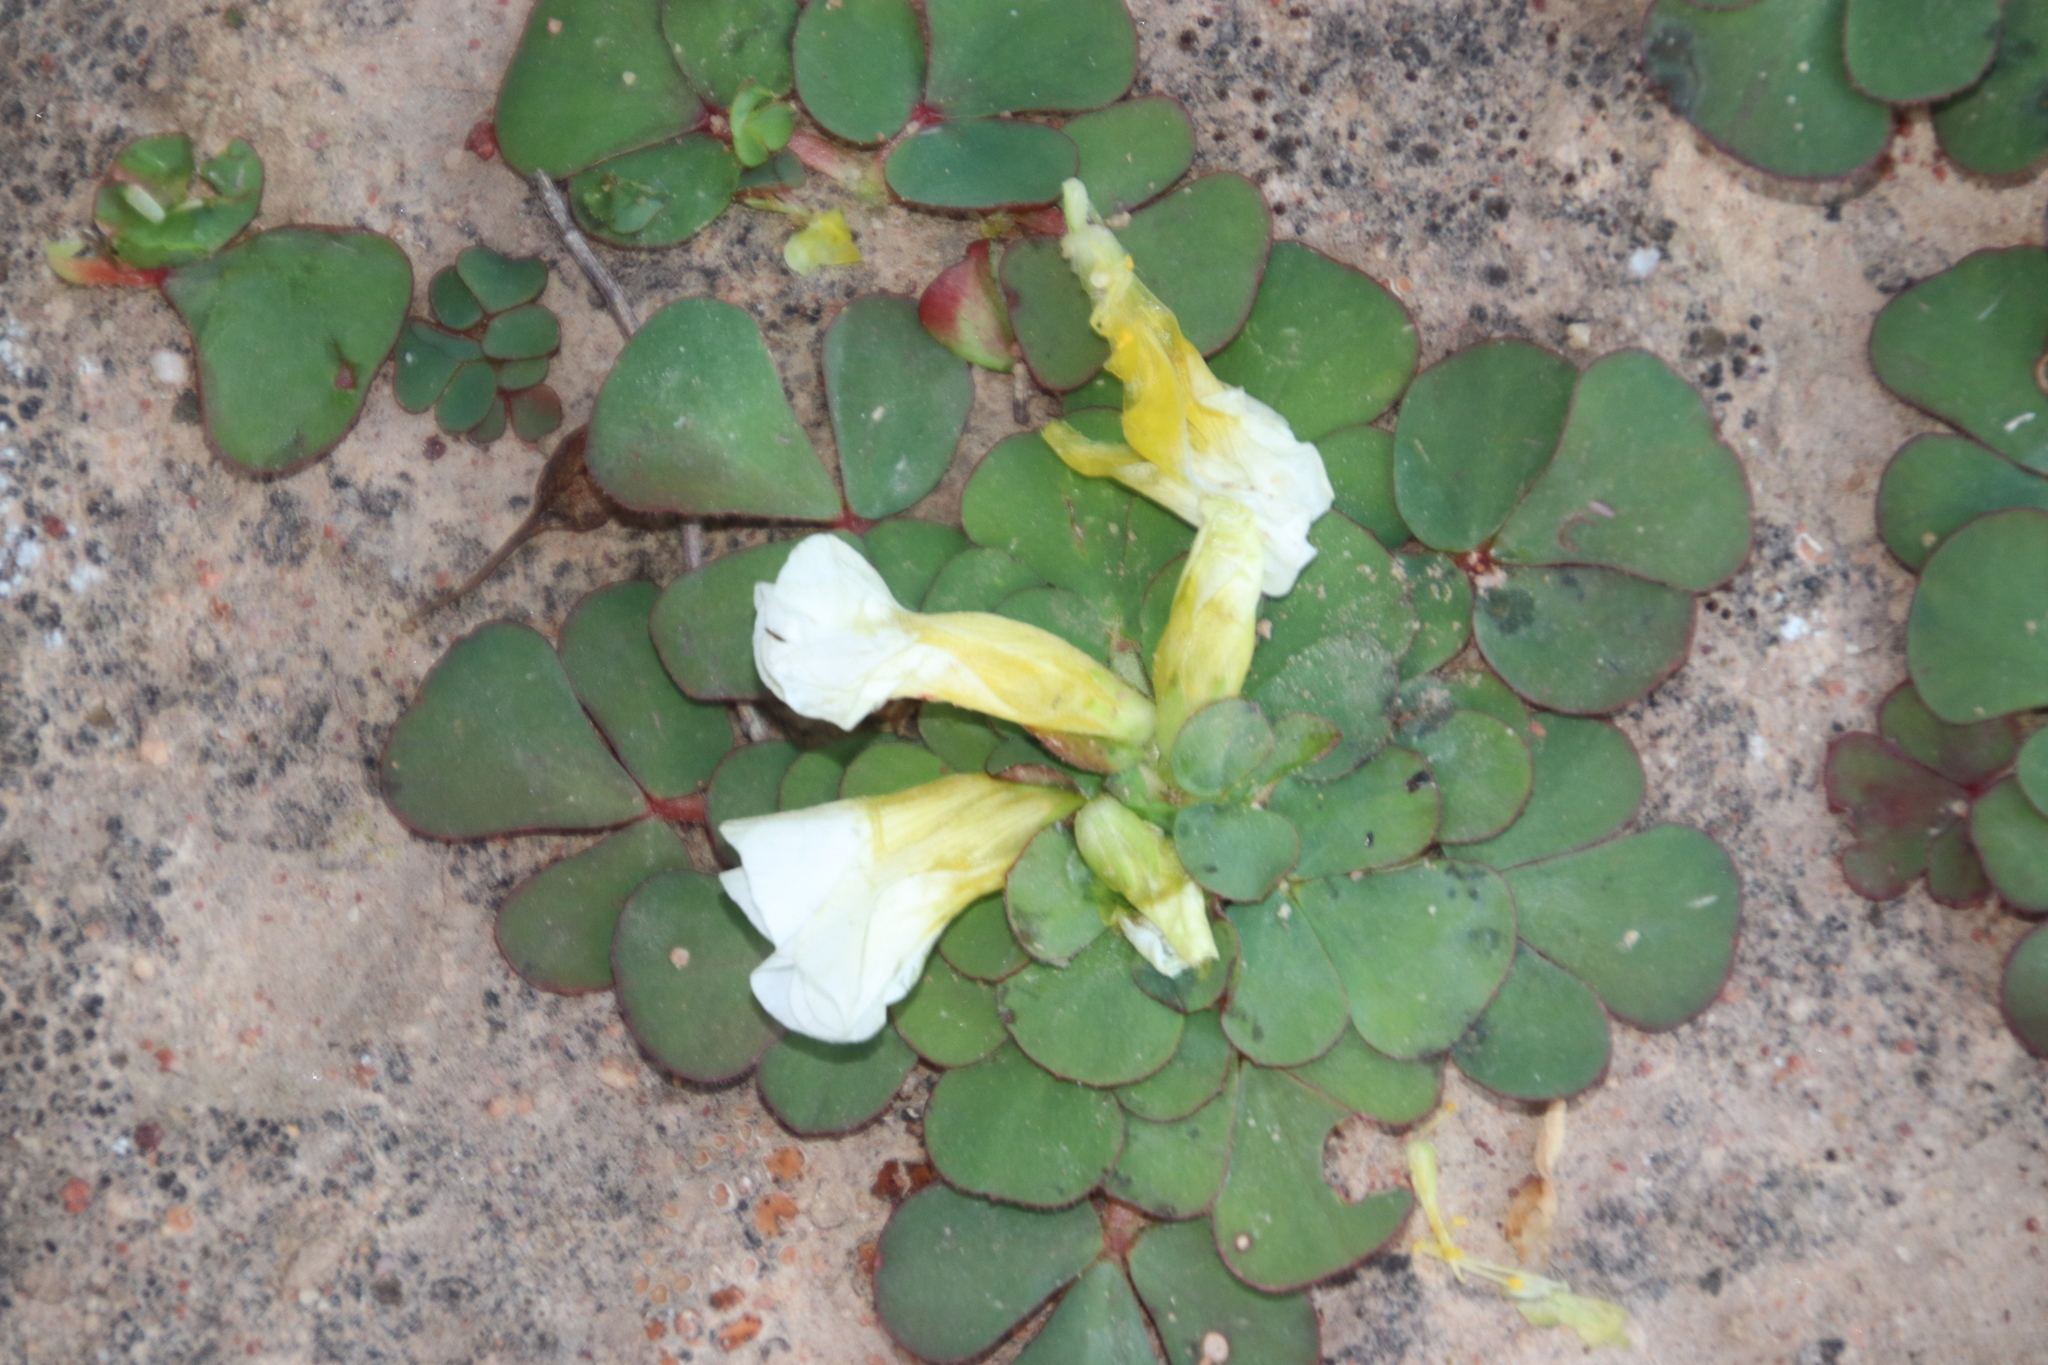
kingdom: Plantae
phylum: Tracheophyta
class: Magnoliopsida
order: Oxalidales
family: Oxalidaceae
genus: Oxalis
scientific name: Oxalis purpurea
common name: Purple woodsorrel
